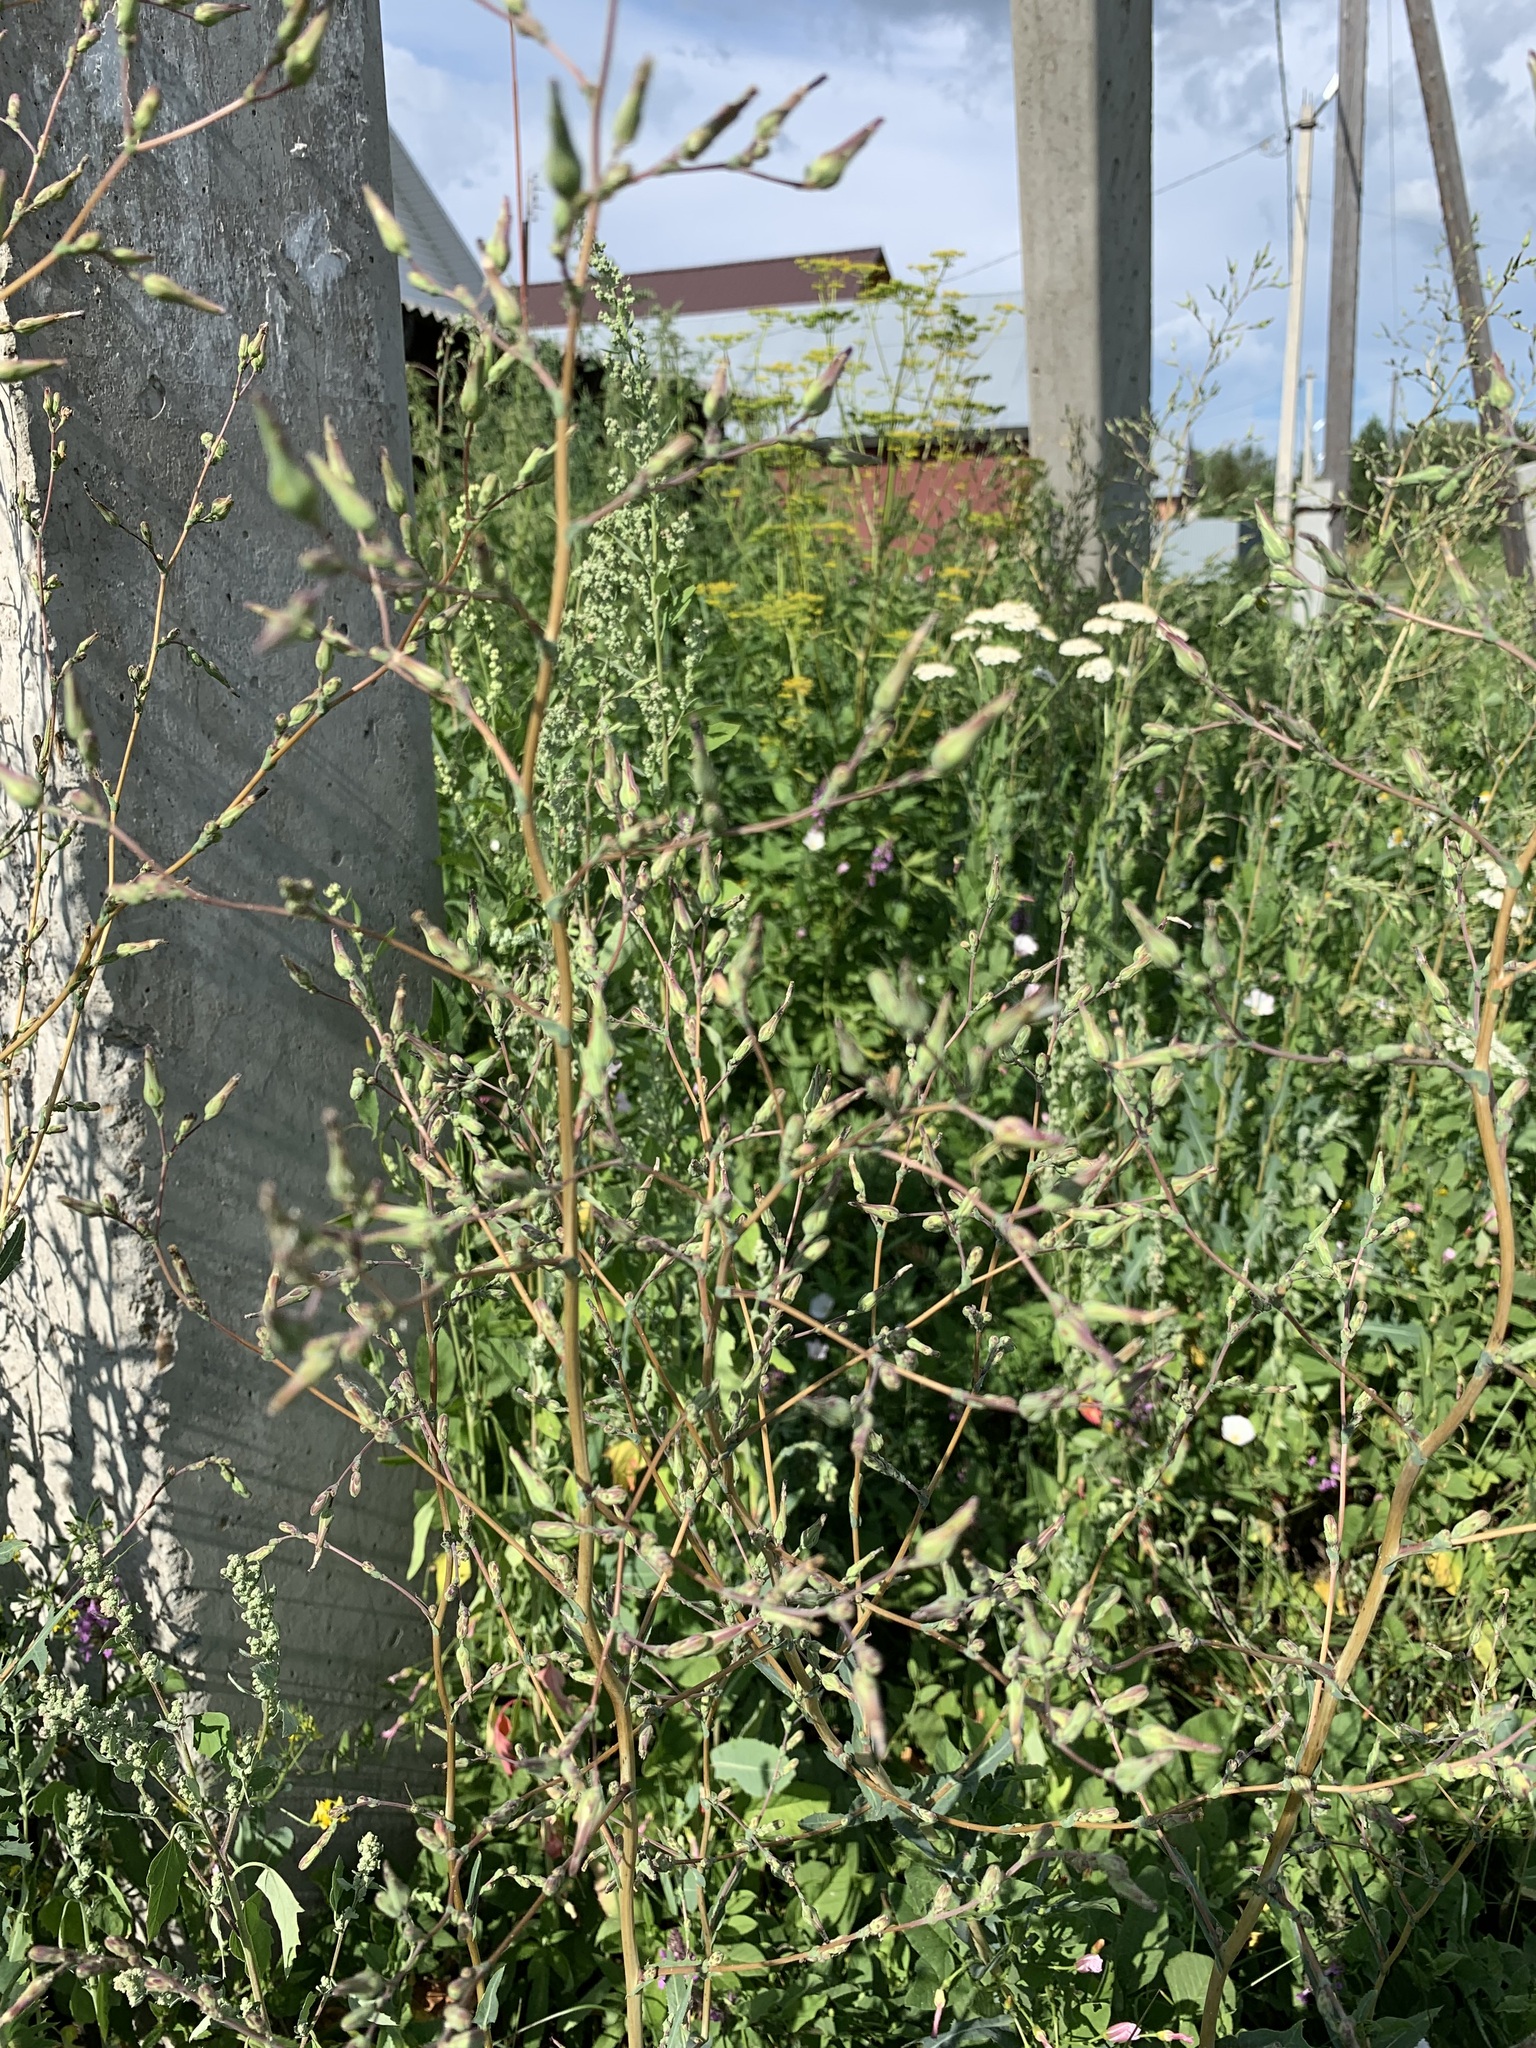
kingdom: Plantae
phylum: Tracheophyta
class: Magnoliopsida
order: Asterales
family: Asteraceae
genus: Lactuca
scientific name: Lactuca serriola
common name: Prickly lettuce
